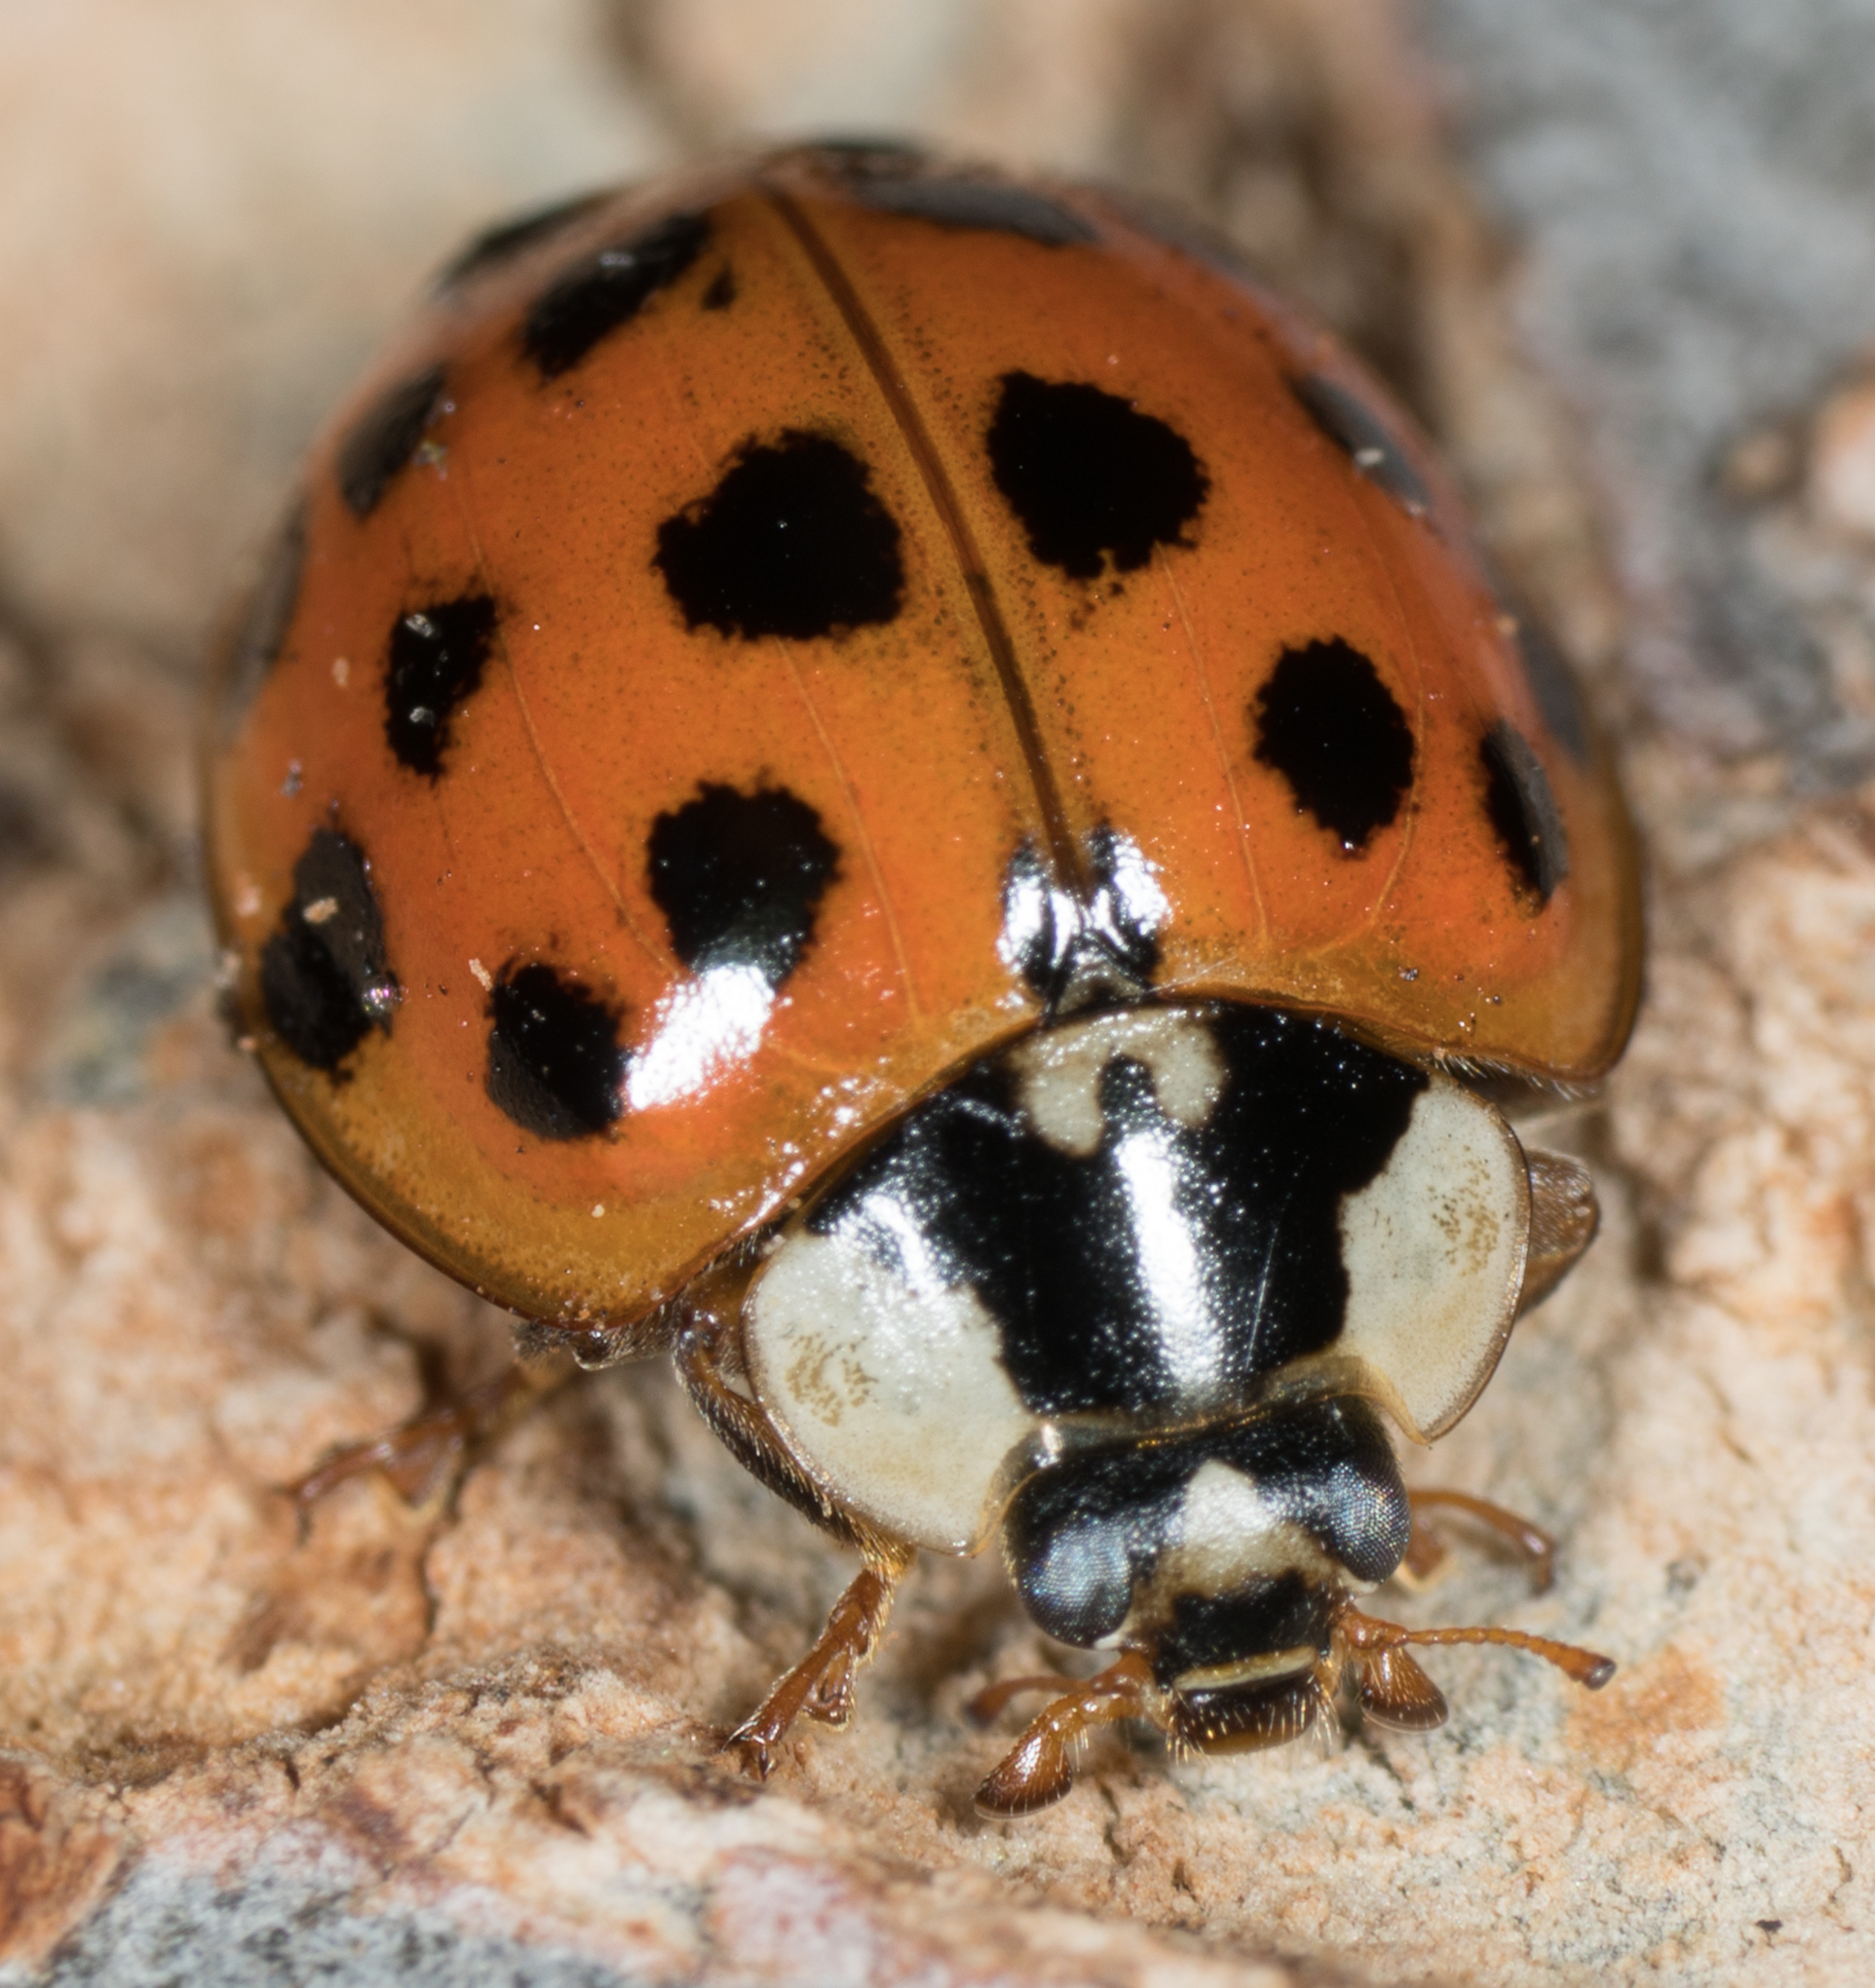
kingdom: Animalia
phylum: Arthropoda
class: Insecta
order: Coleoptera
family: Coccinellidae
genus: Harmonia
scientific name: Harmonia axyridis
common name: Harlequin ladybird
